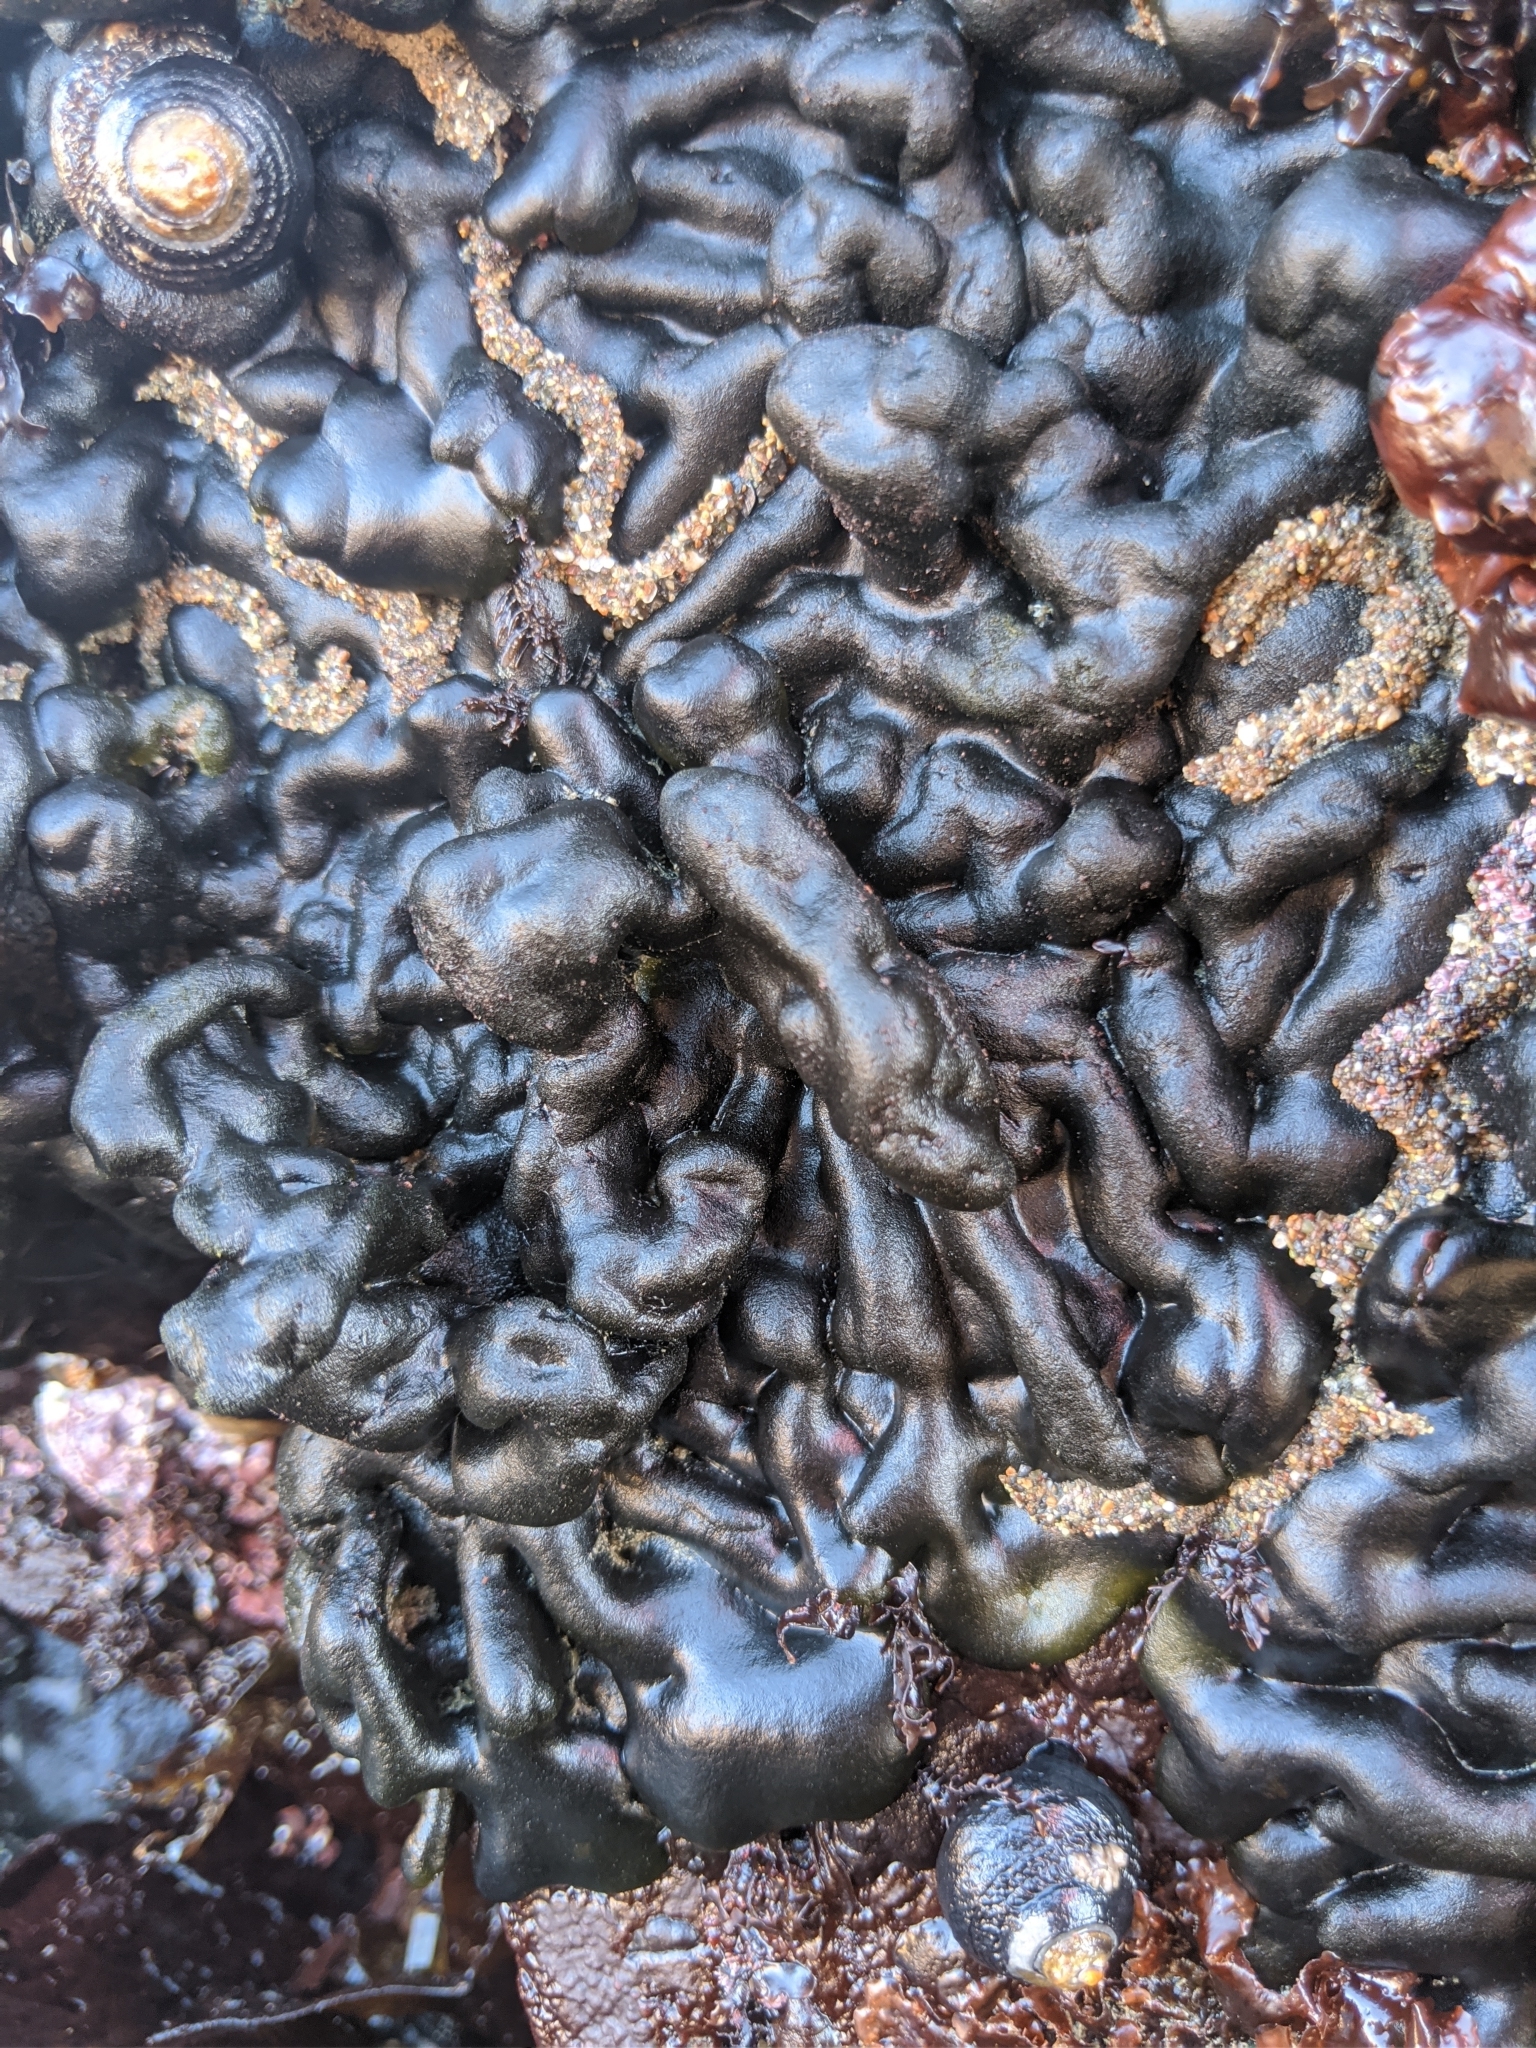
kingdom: Plantae
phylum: Chlorophyta
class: Ulvophyceae
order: Bryopsidales
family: Codiaceae
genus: Codium
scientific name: Codium setchellii
